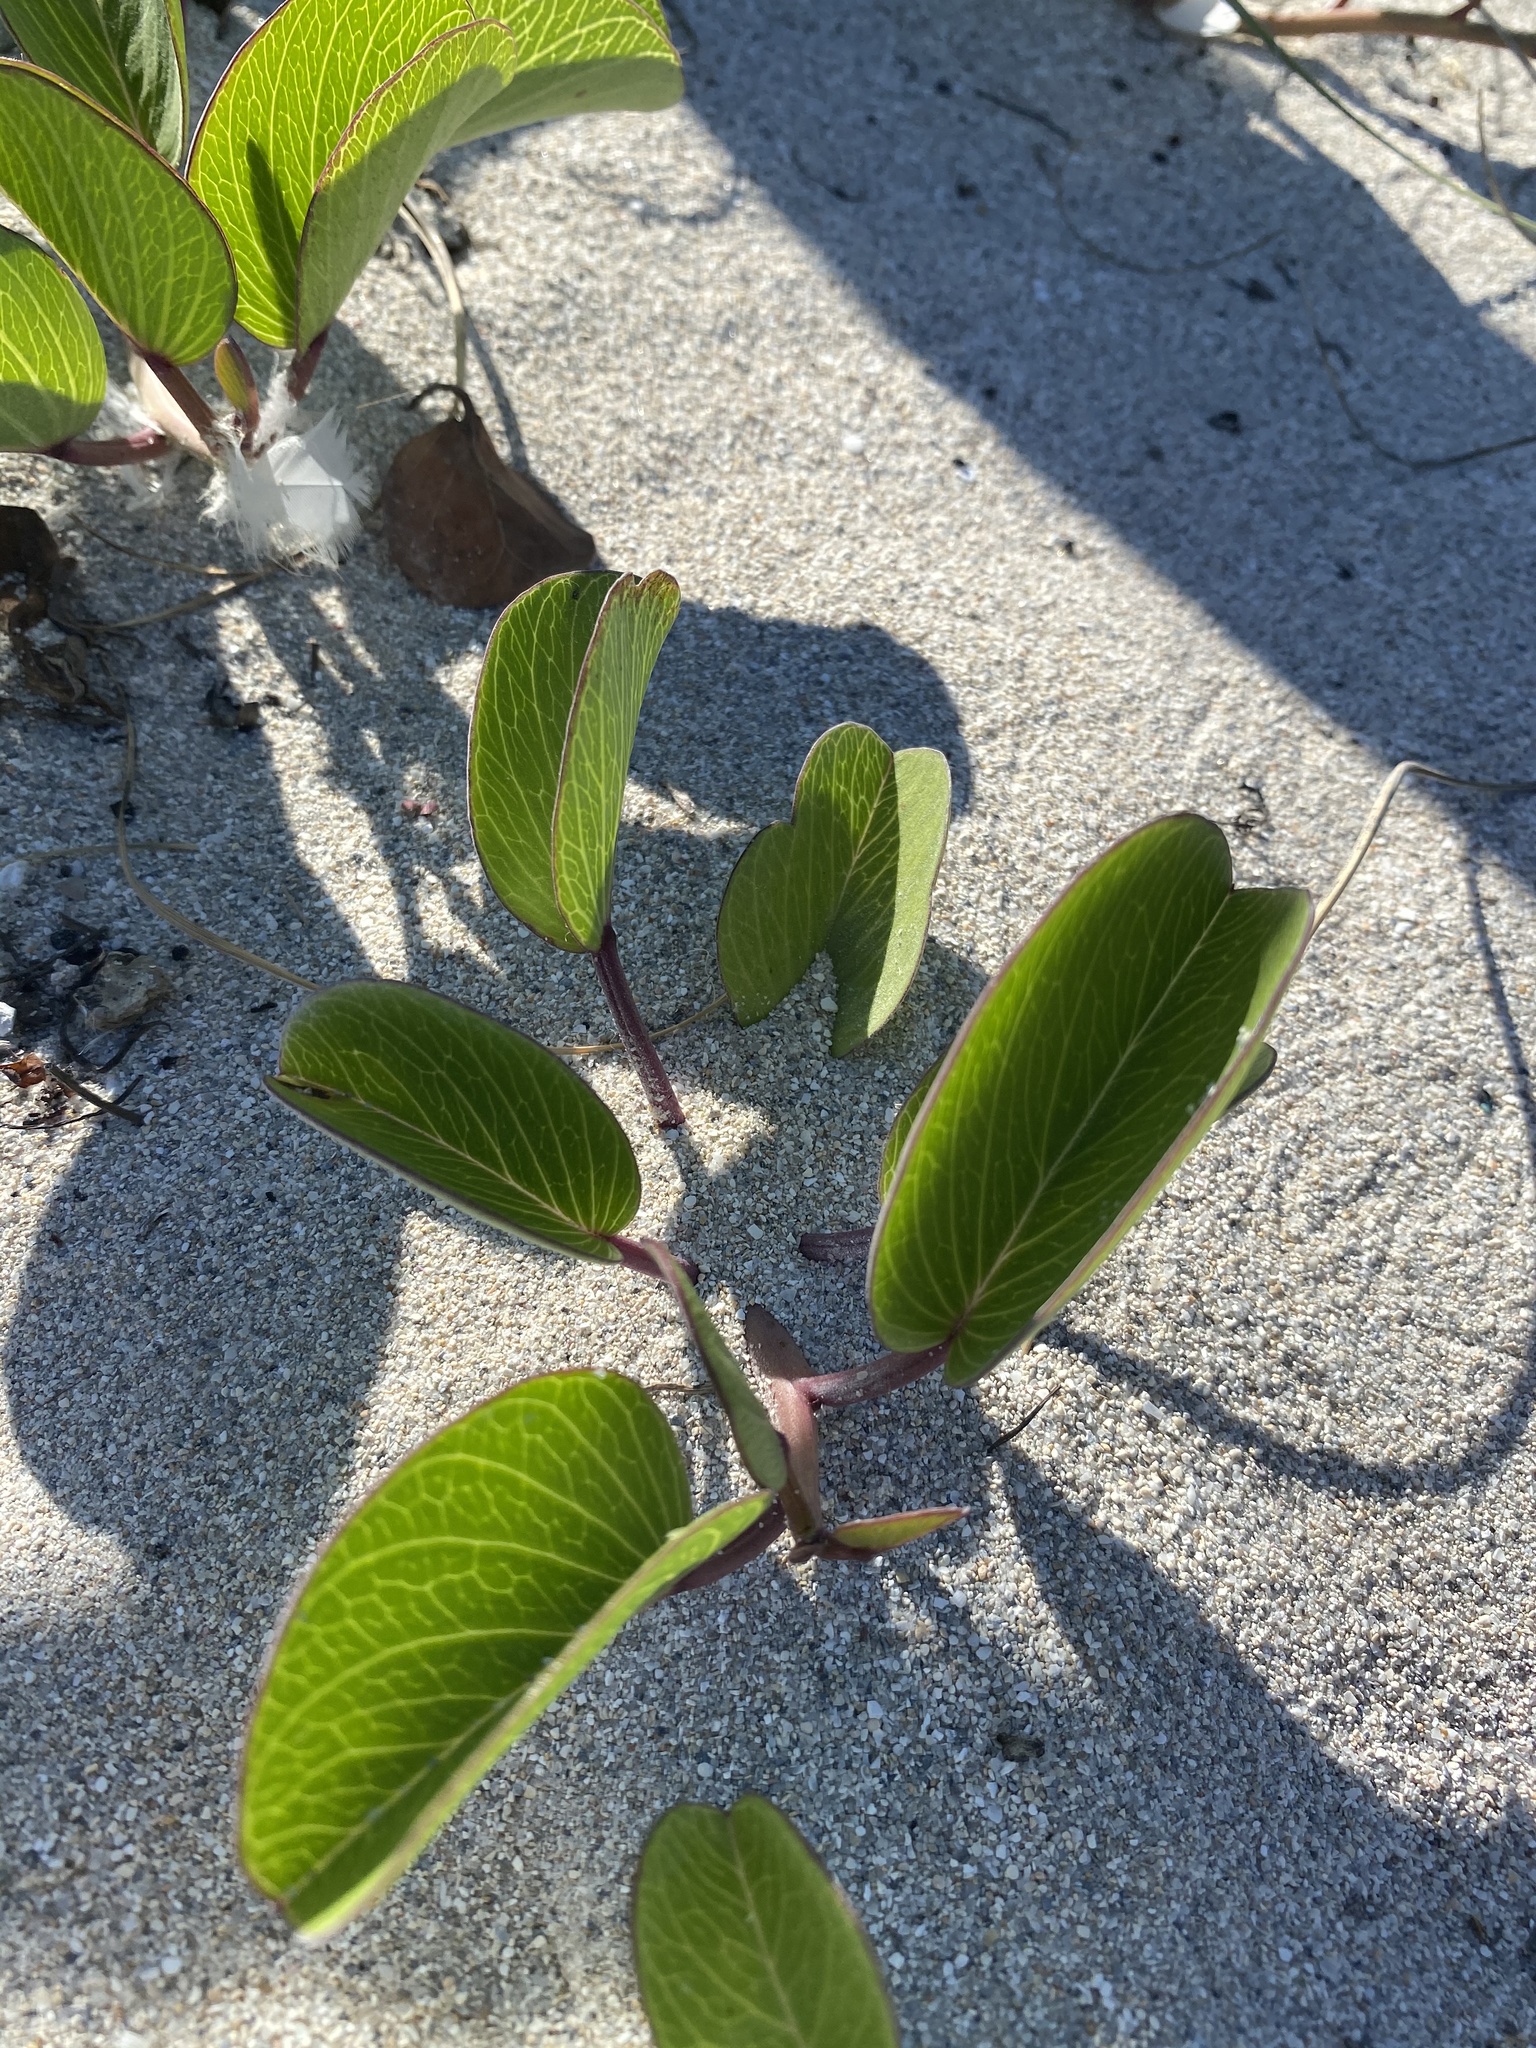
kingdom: Plantae
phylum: Tracheophyta
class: Magnoliopsida
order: Solanales
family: Convolvulaceae
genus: Ipomoea
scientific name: Ipomoea pes-caprae
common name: Beach morning glory
